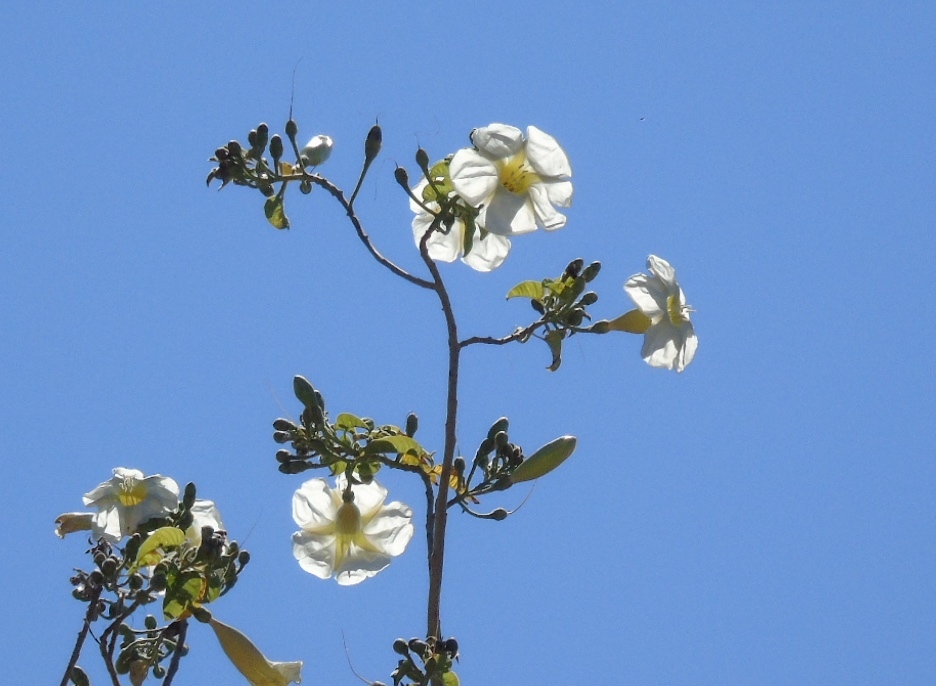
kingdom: Plantae
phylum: Tracheophyta
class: Magnoliopsida
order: Solanales
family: Convolvulaceae
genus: Ipomoea
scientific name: Ipomoea arborescens
